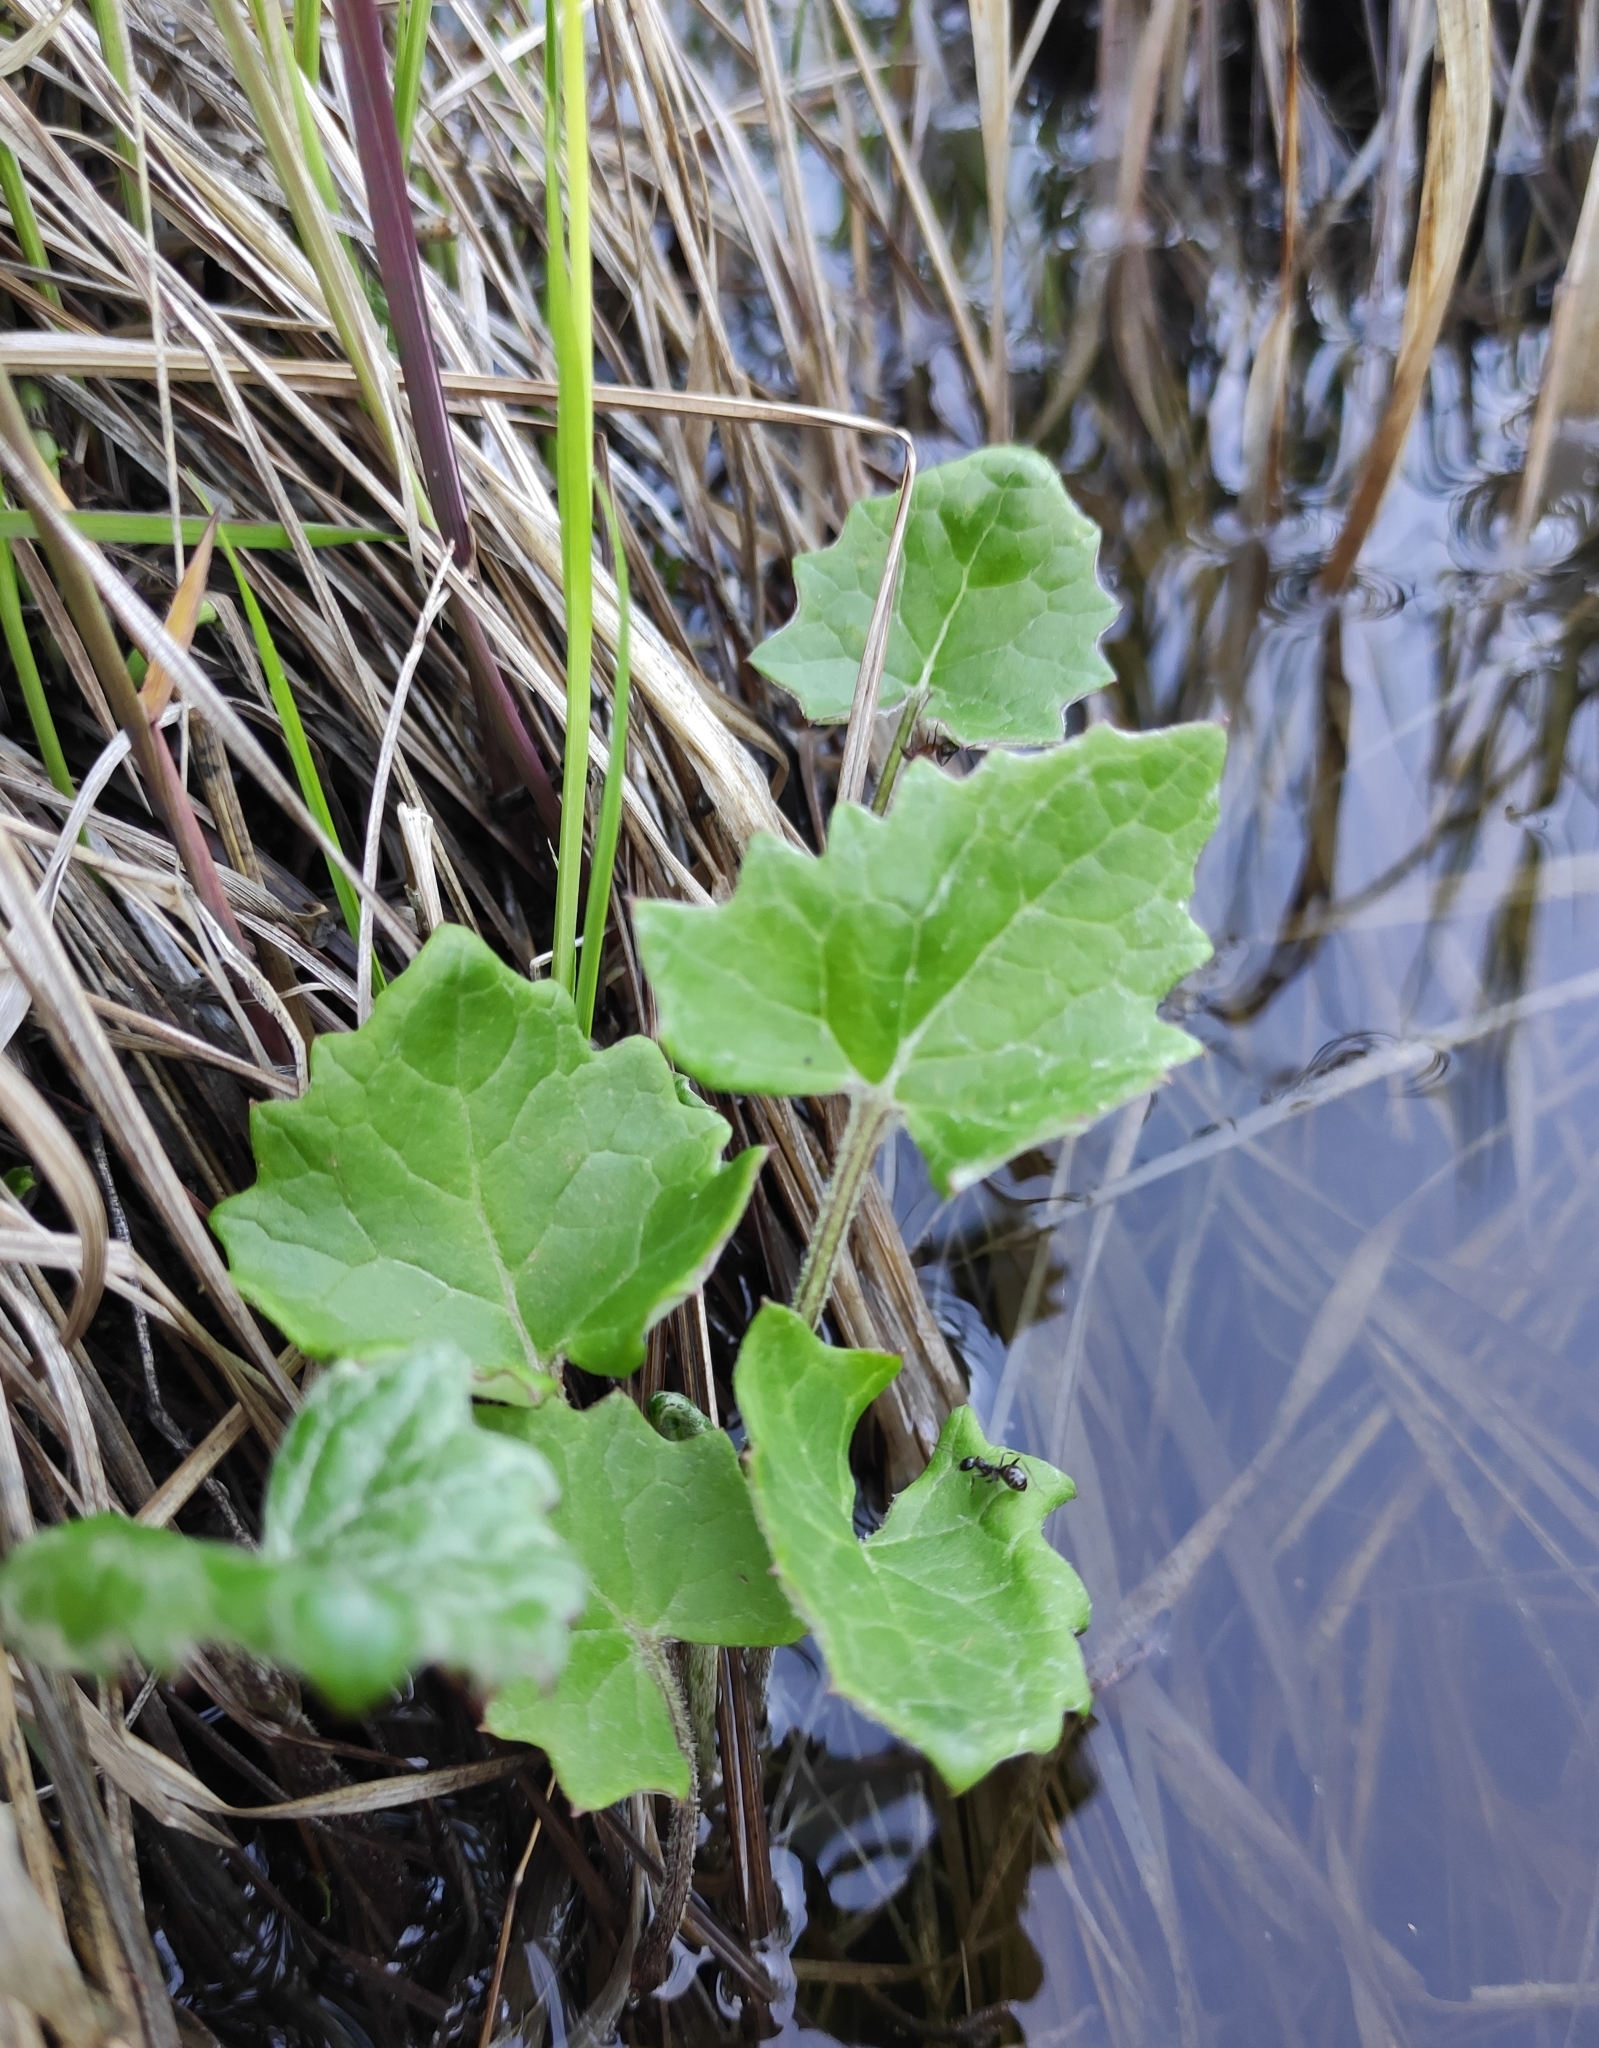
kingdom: Plantae
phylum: Tracheophyta
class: Magnoliopsida
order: Asterales
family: Asteraceae
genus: Petasites
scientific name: Petasites frigidus
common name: Arctic butterbur
